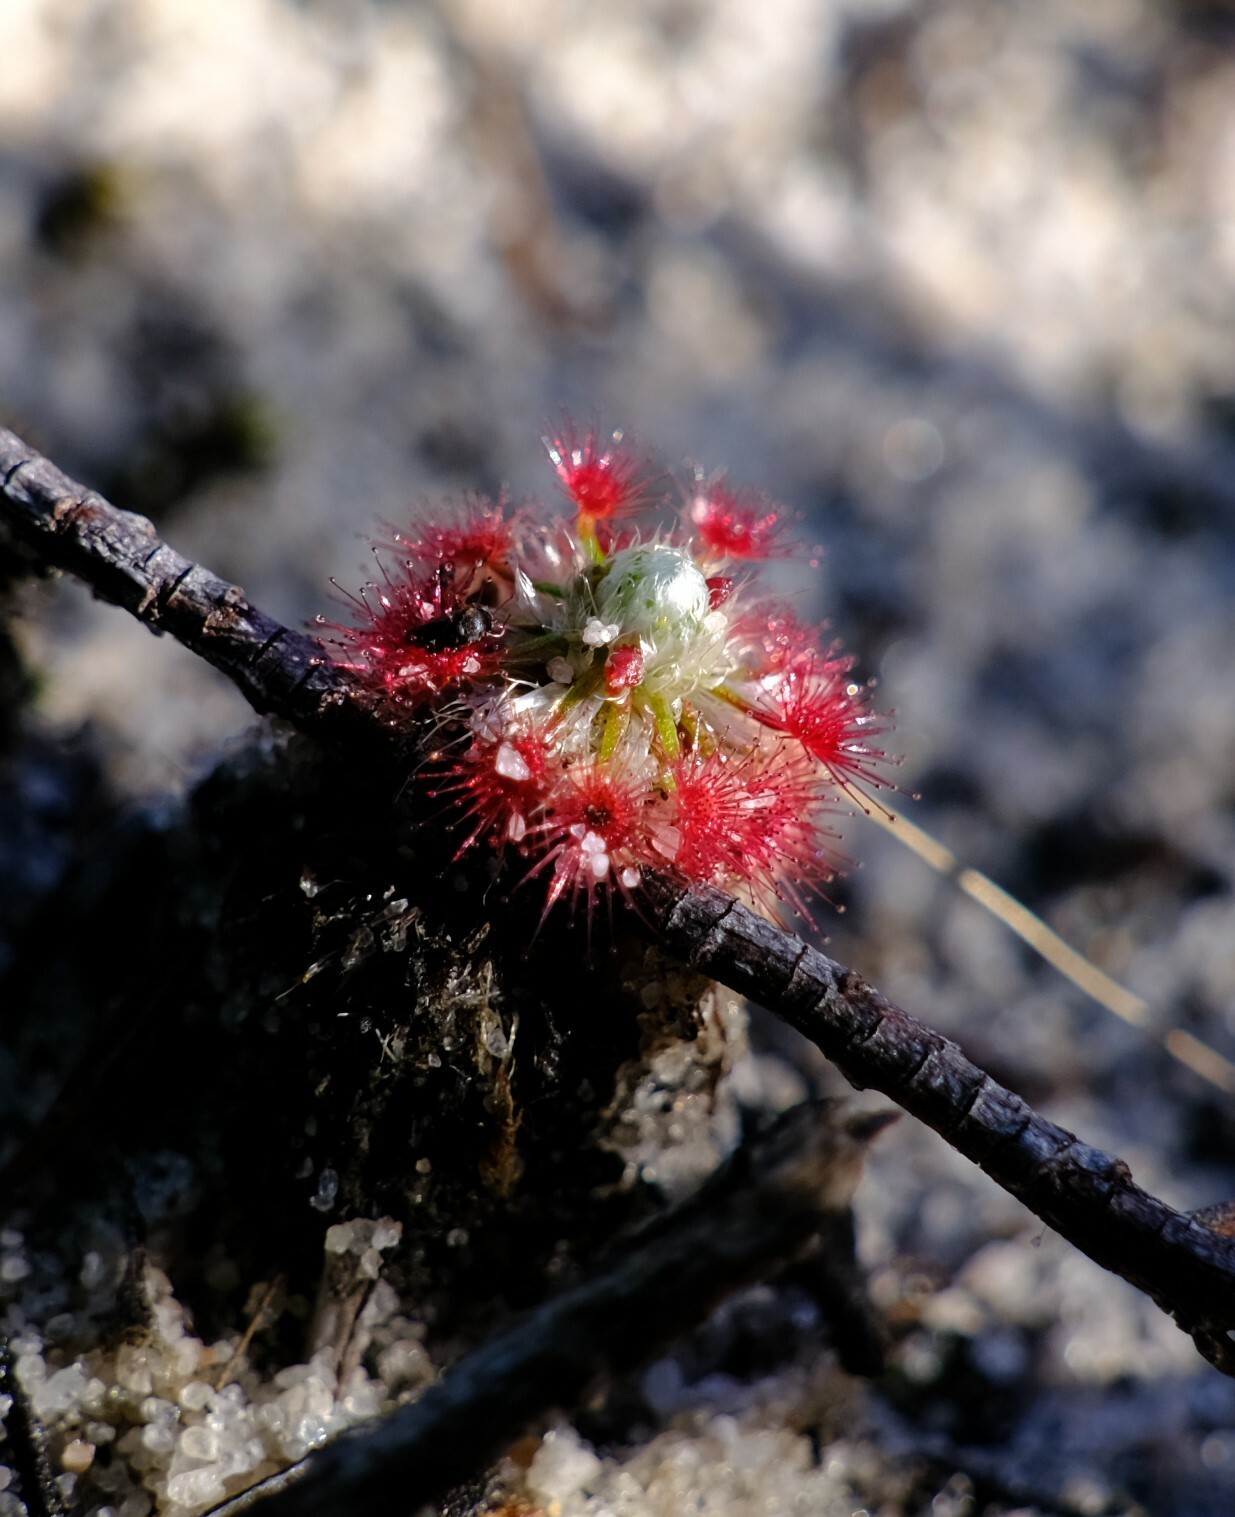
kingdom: Plantae
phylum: Tracheophyta
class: Magnoliopsida
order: Caryophyllales
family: Droseraceae
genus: Drosera
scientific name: Drosera paleacea
